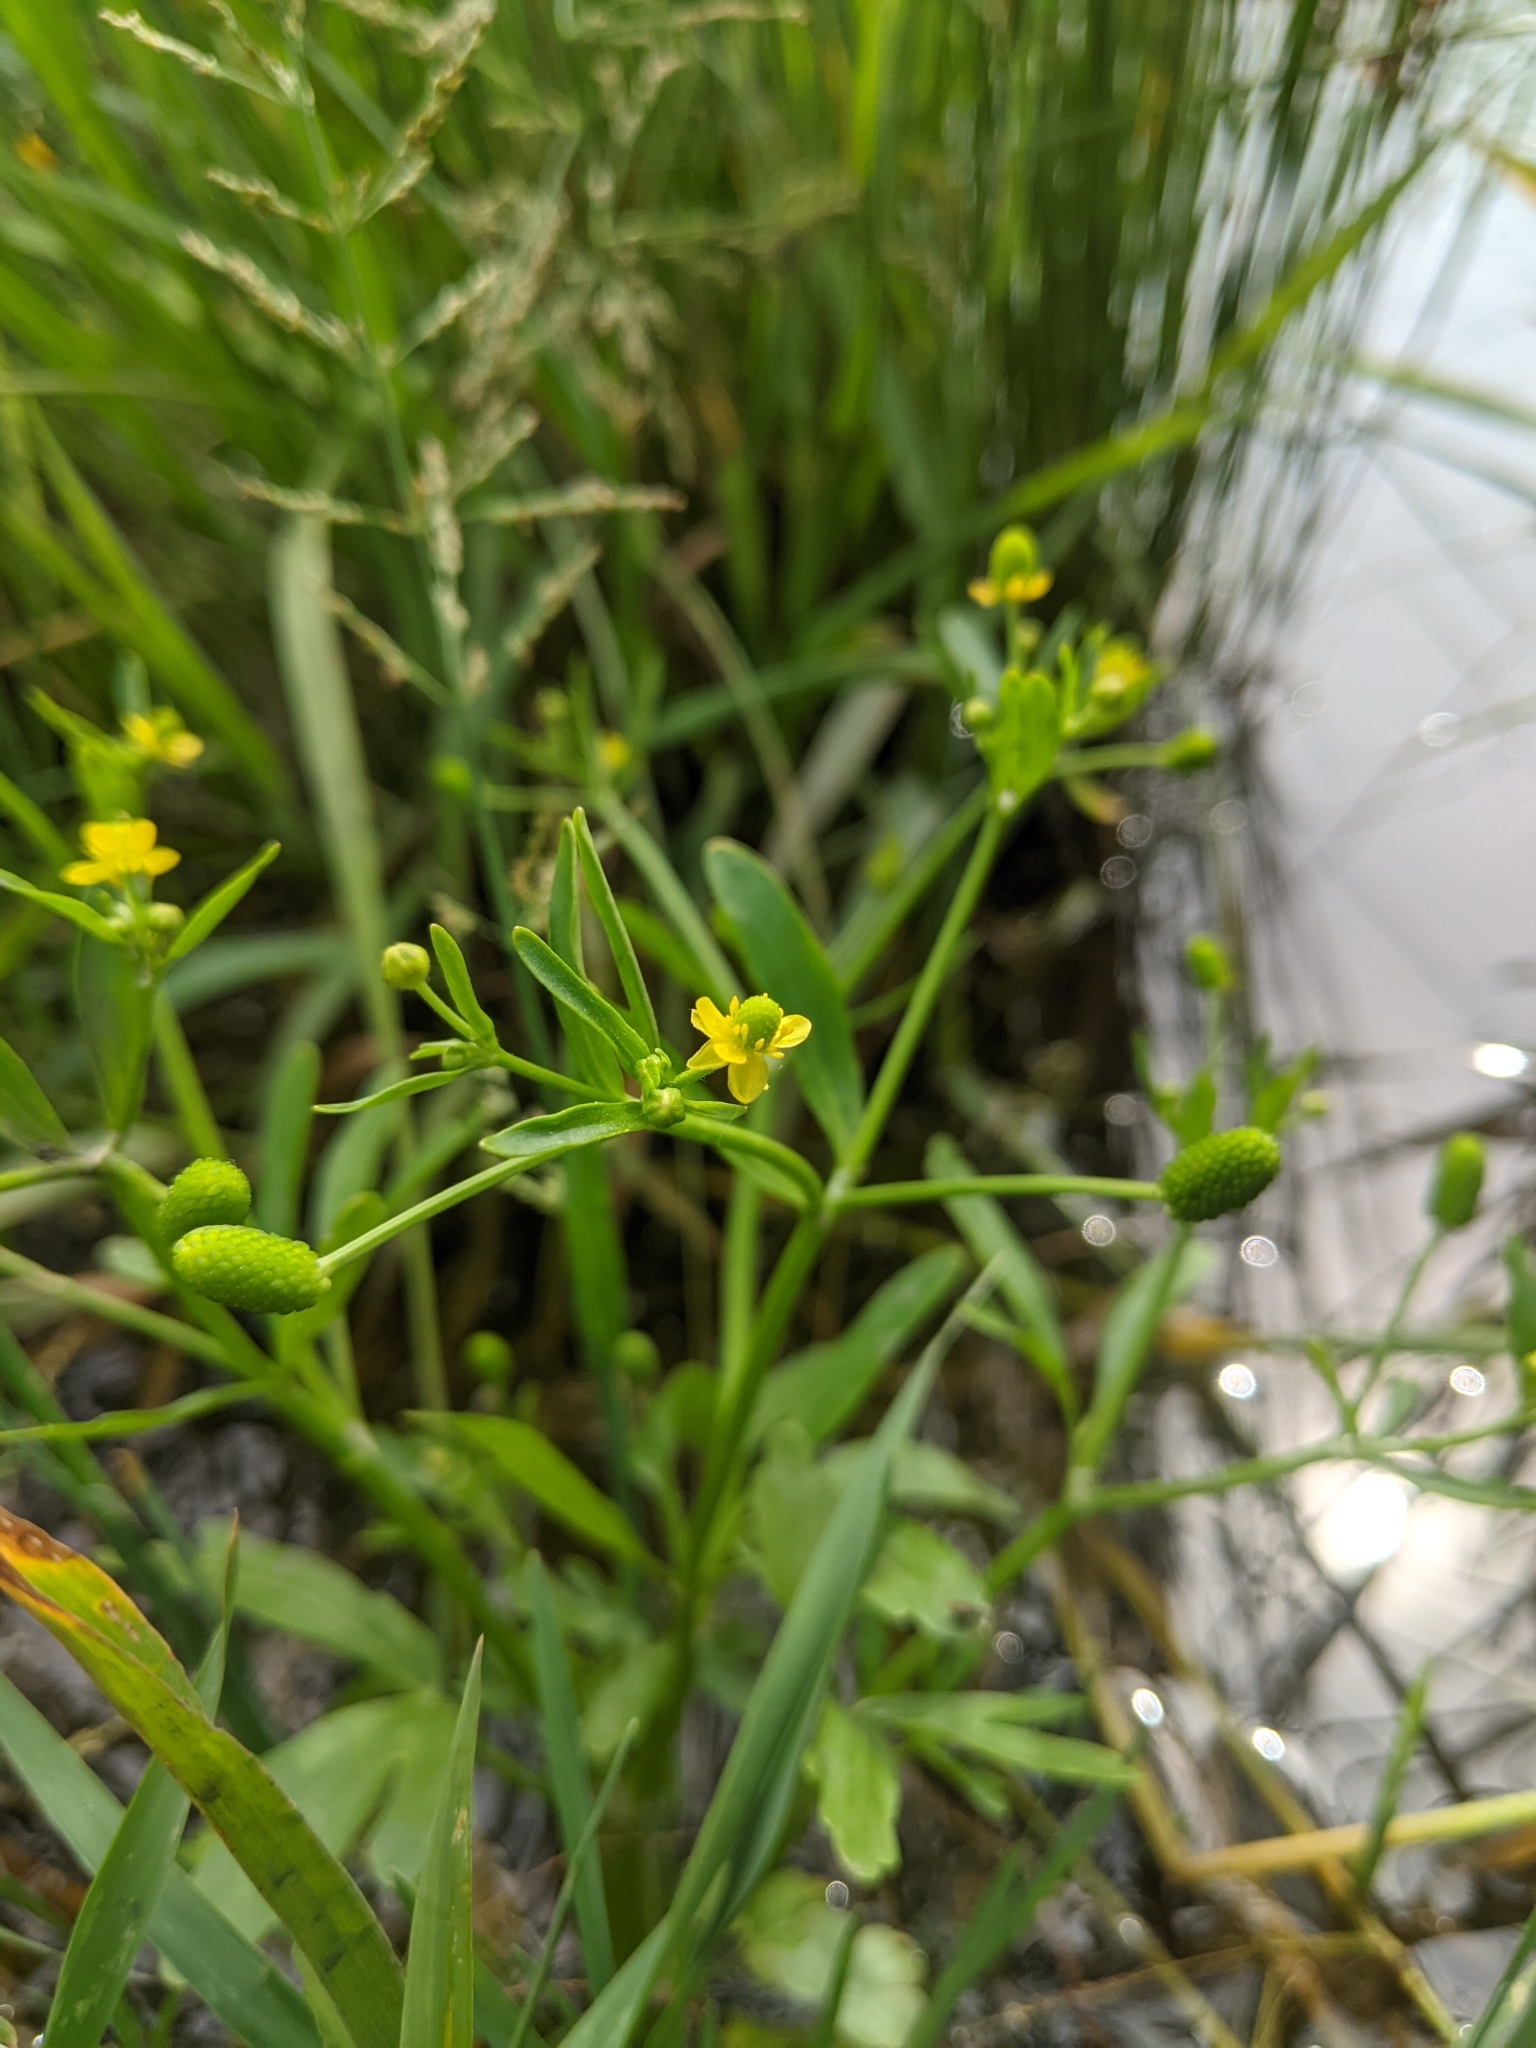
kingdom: Plantae
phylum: Tracheophyta
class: Magnoliopsida
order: Ranunculales
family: Ranunculaceae
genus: Ranunculus
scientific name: Ranunculus sceleratus
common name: Celery-leaved buttercup
